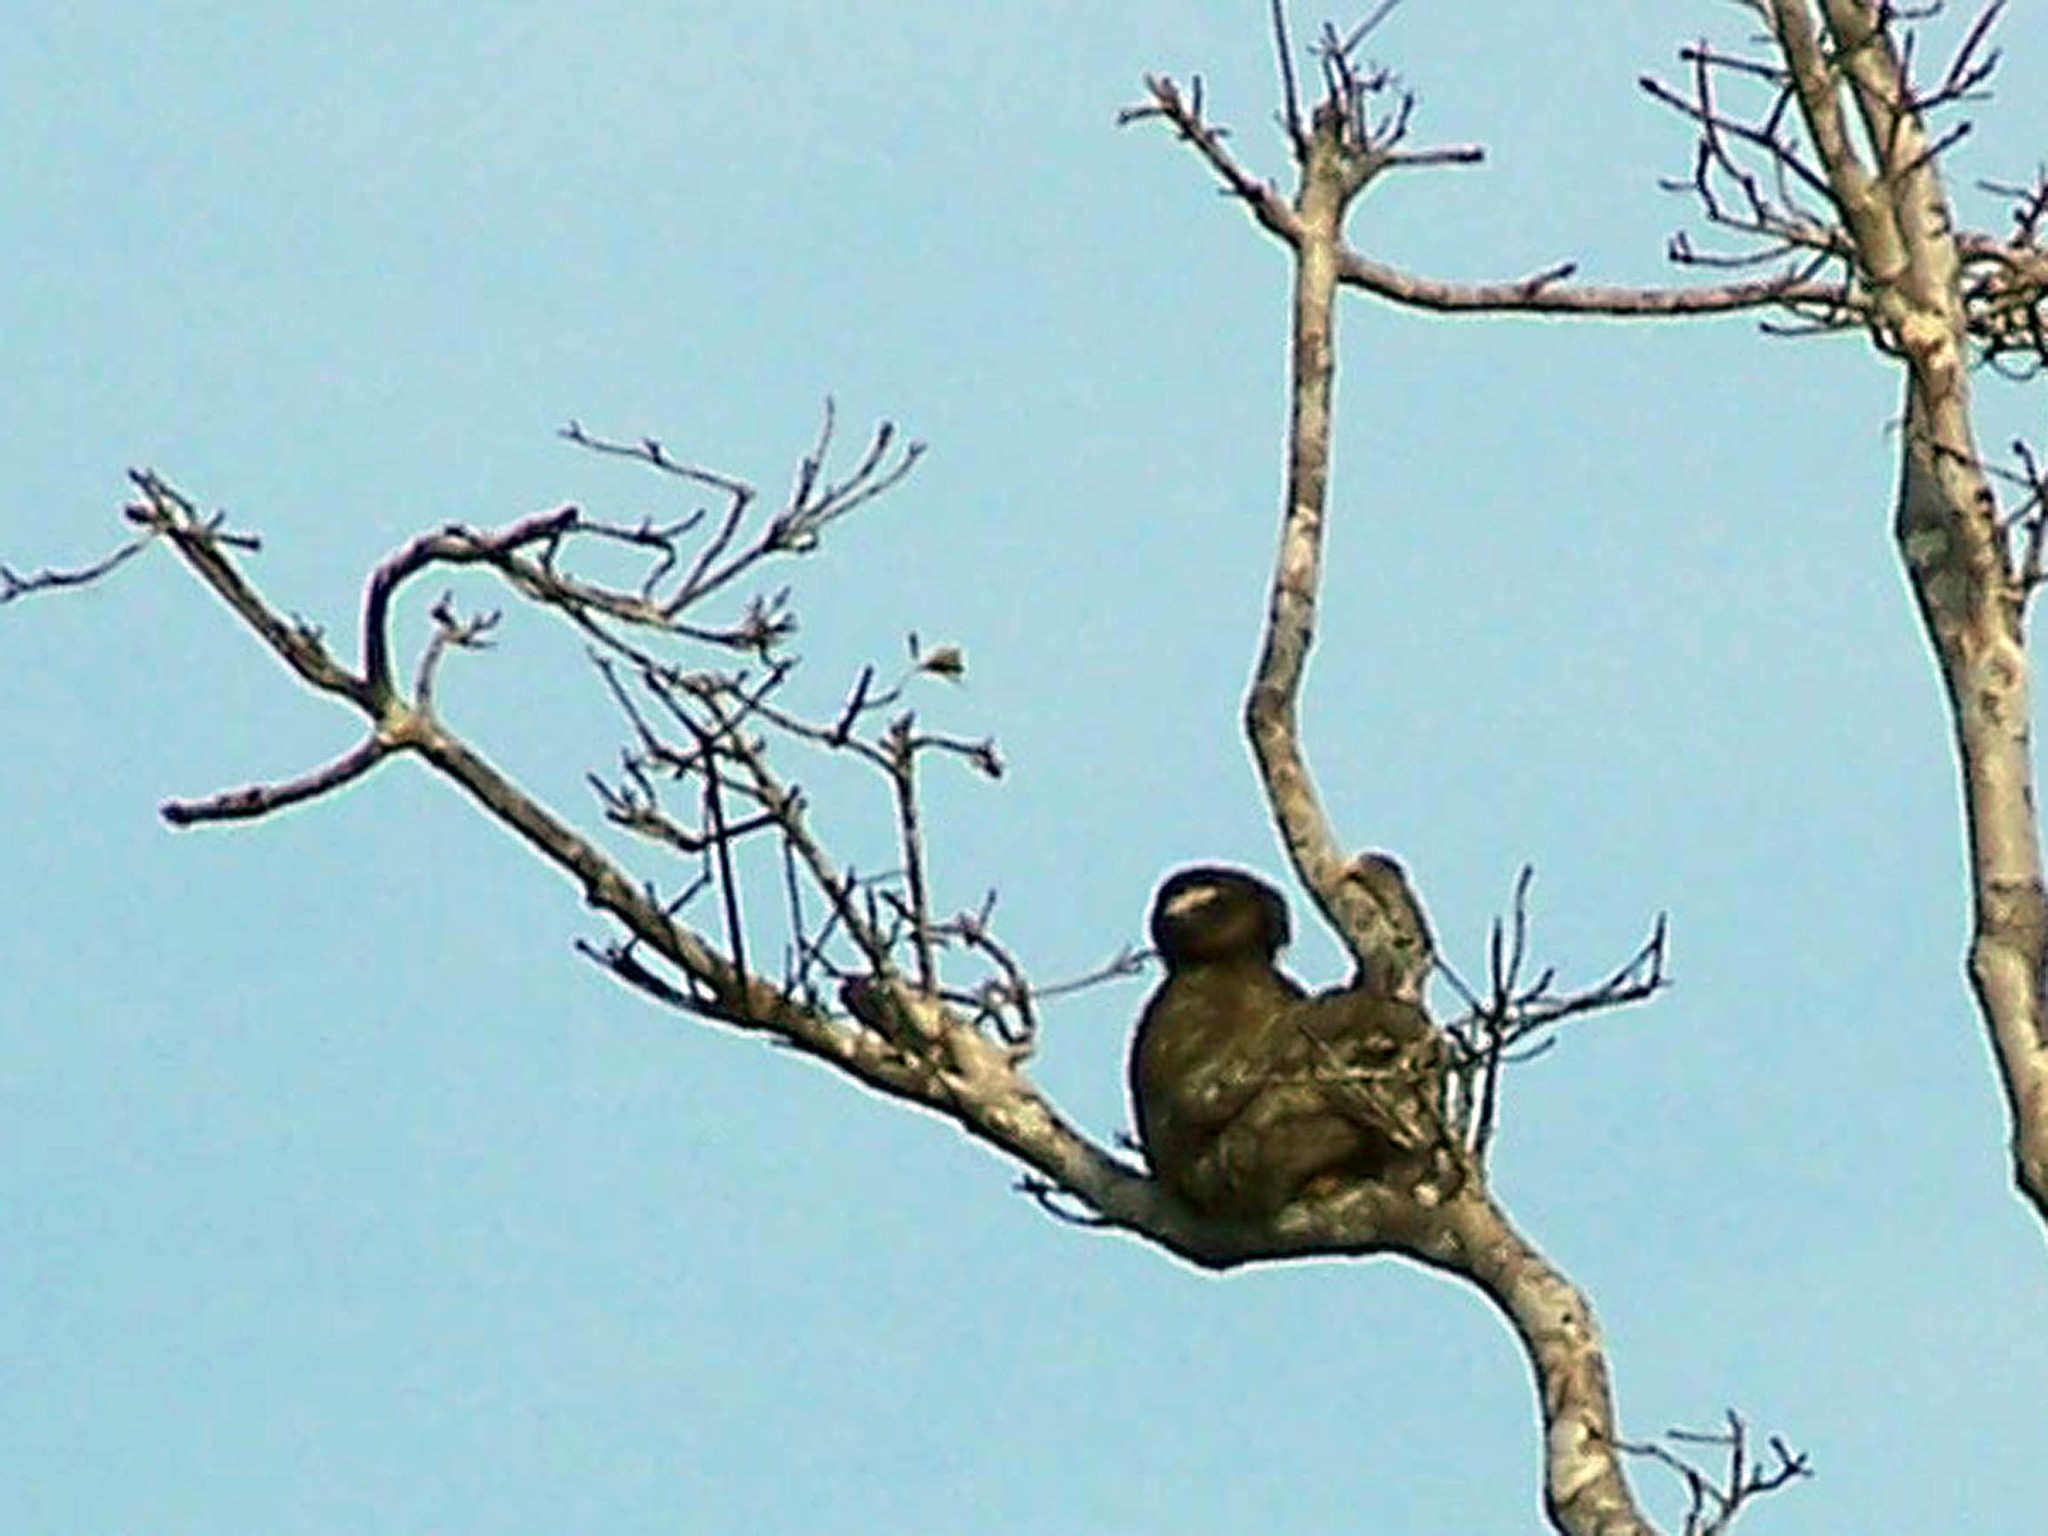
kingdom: Animalia
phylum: Chordata
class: Mammalia
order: Pilosa
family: Bradypodidae
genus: Bradypus
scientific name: Bradypus variegatus
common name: Brown-throated three-toed sloth
